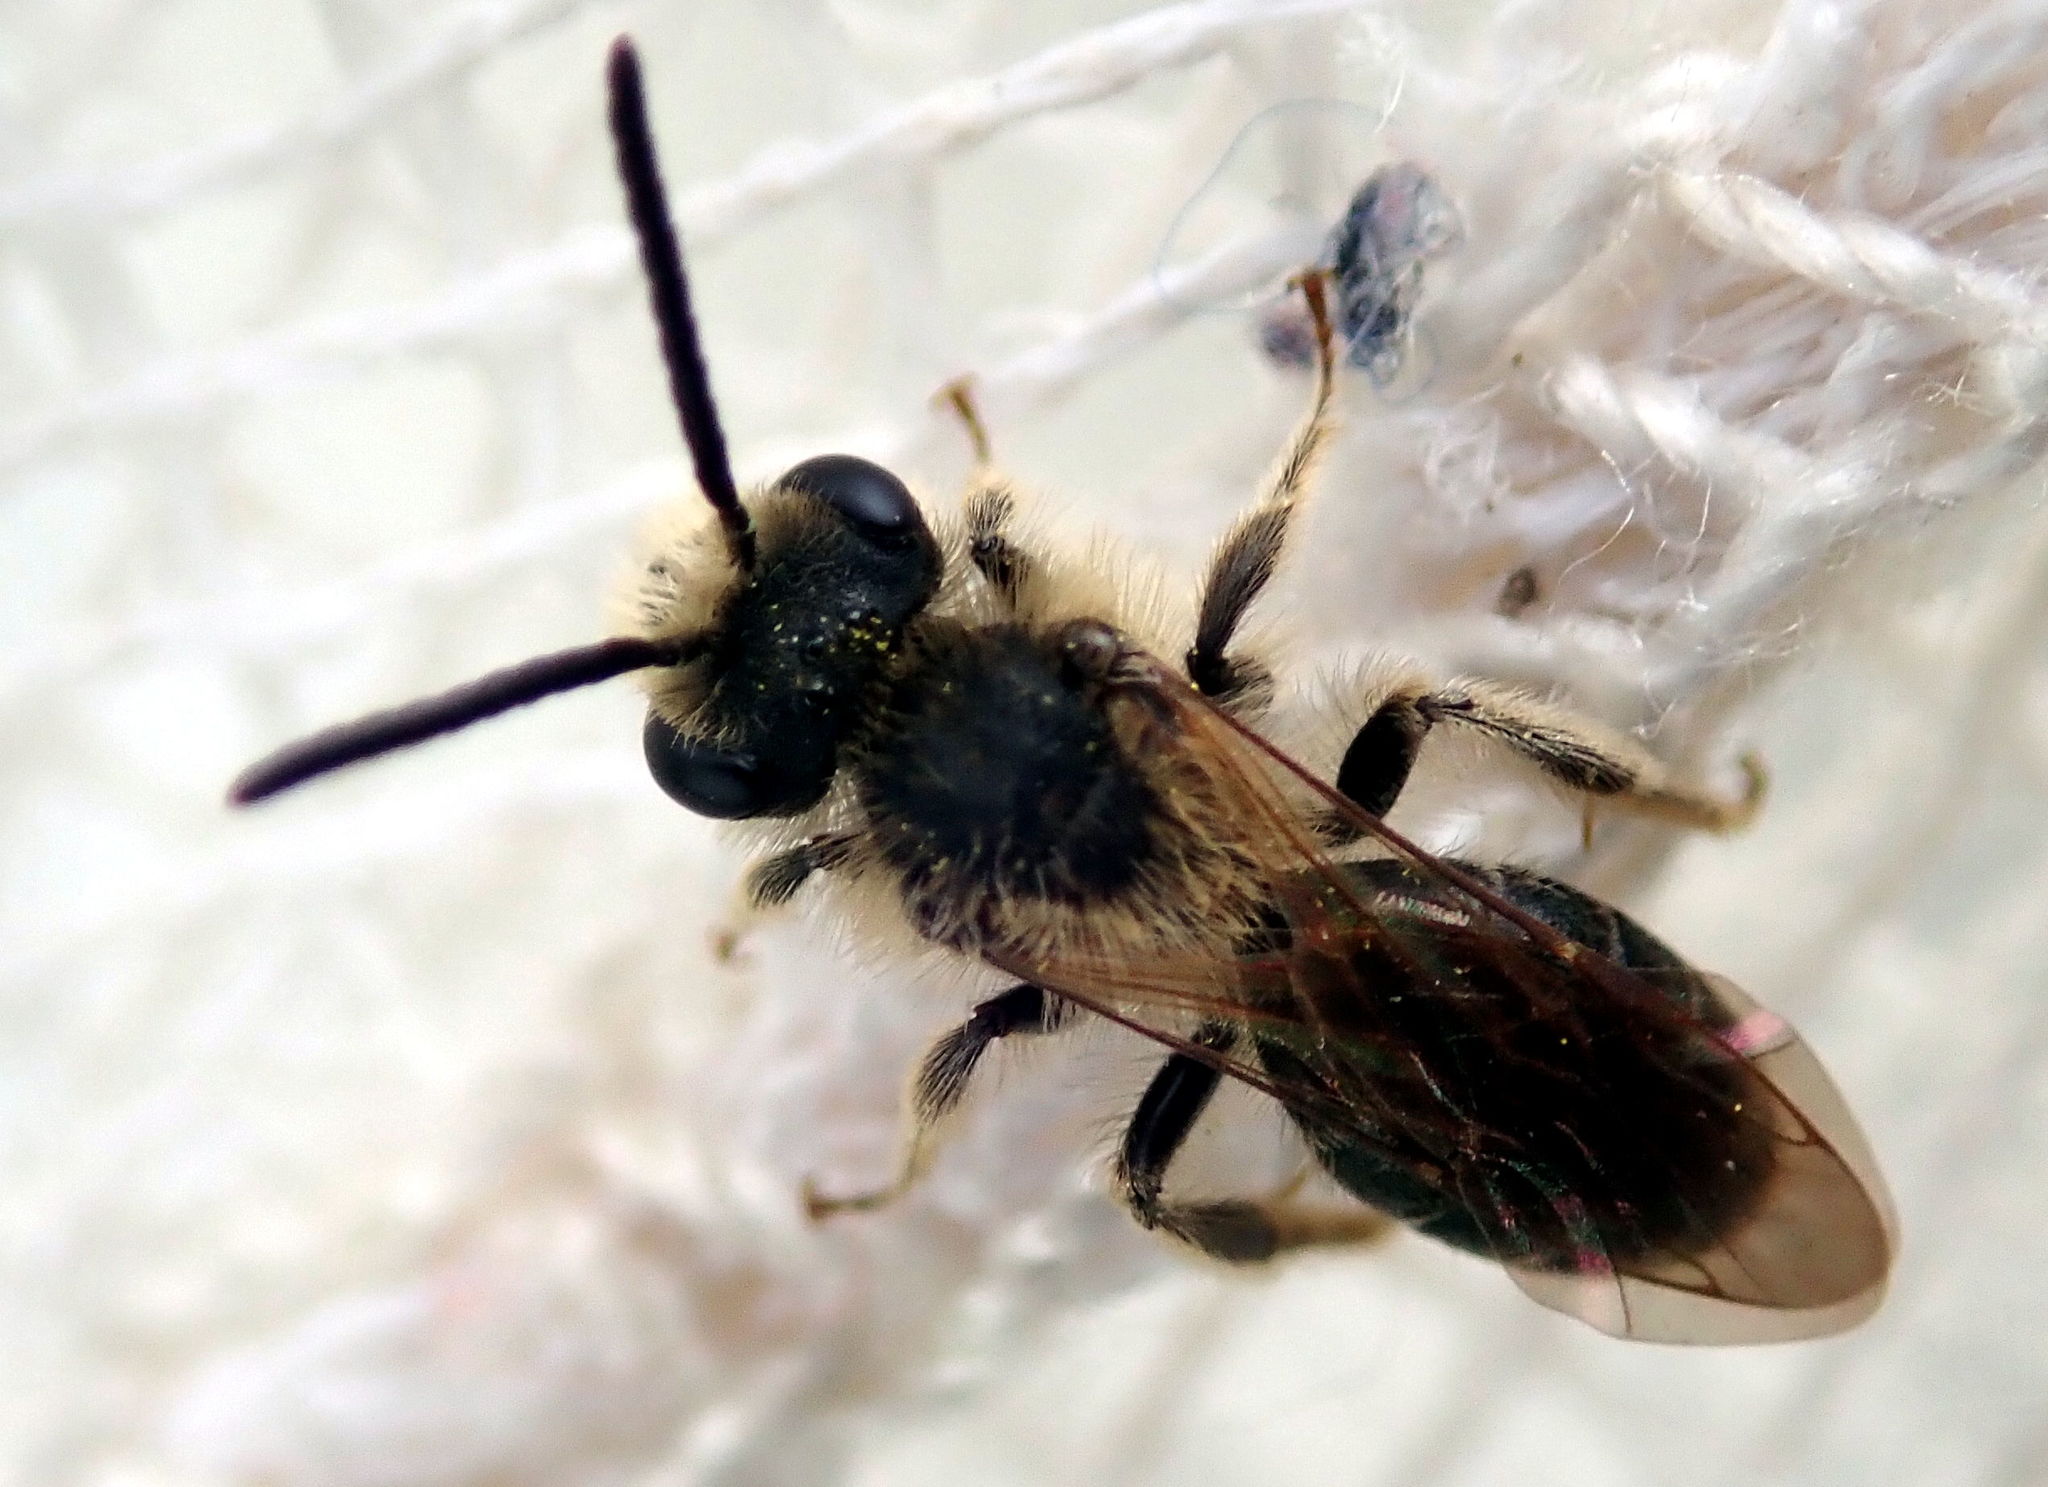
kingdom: Animalia
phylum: Arthropoda
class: Insecta
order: Hymenoptera
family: Andrenidae
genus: Andrena
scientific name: Andrena
